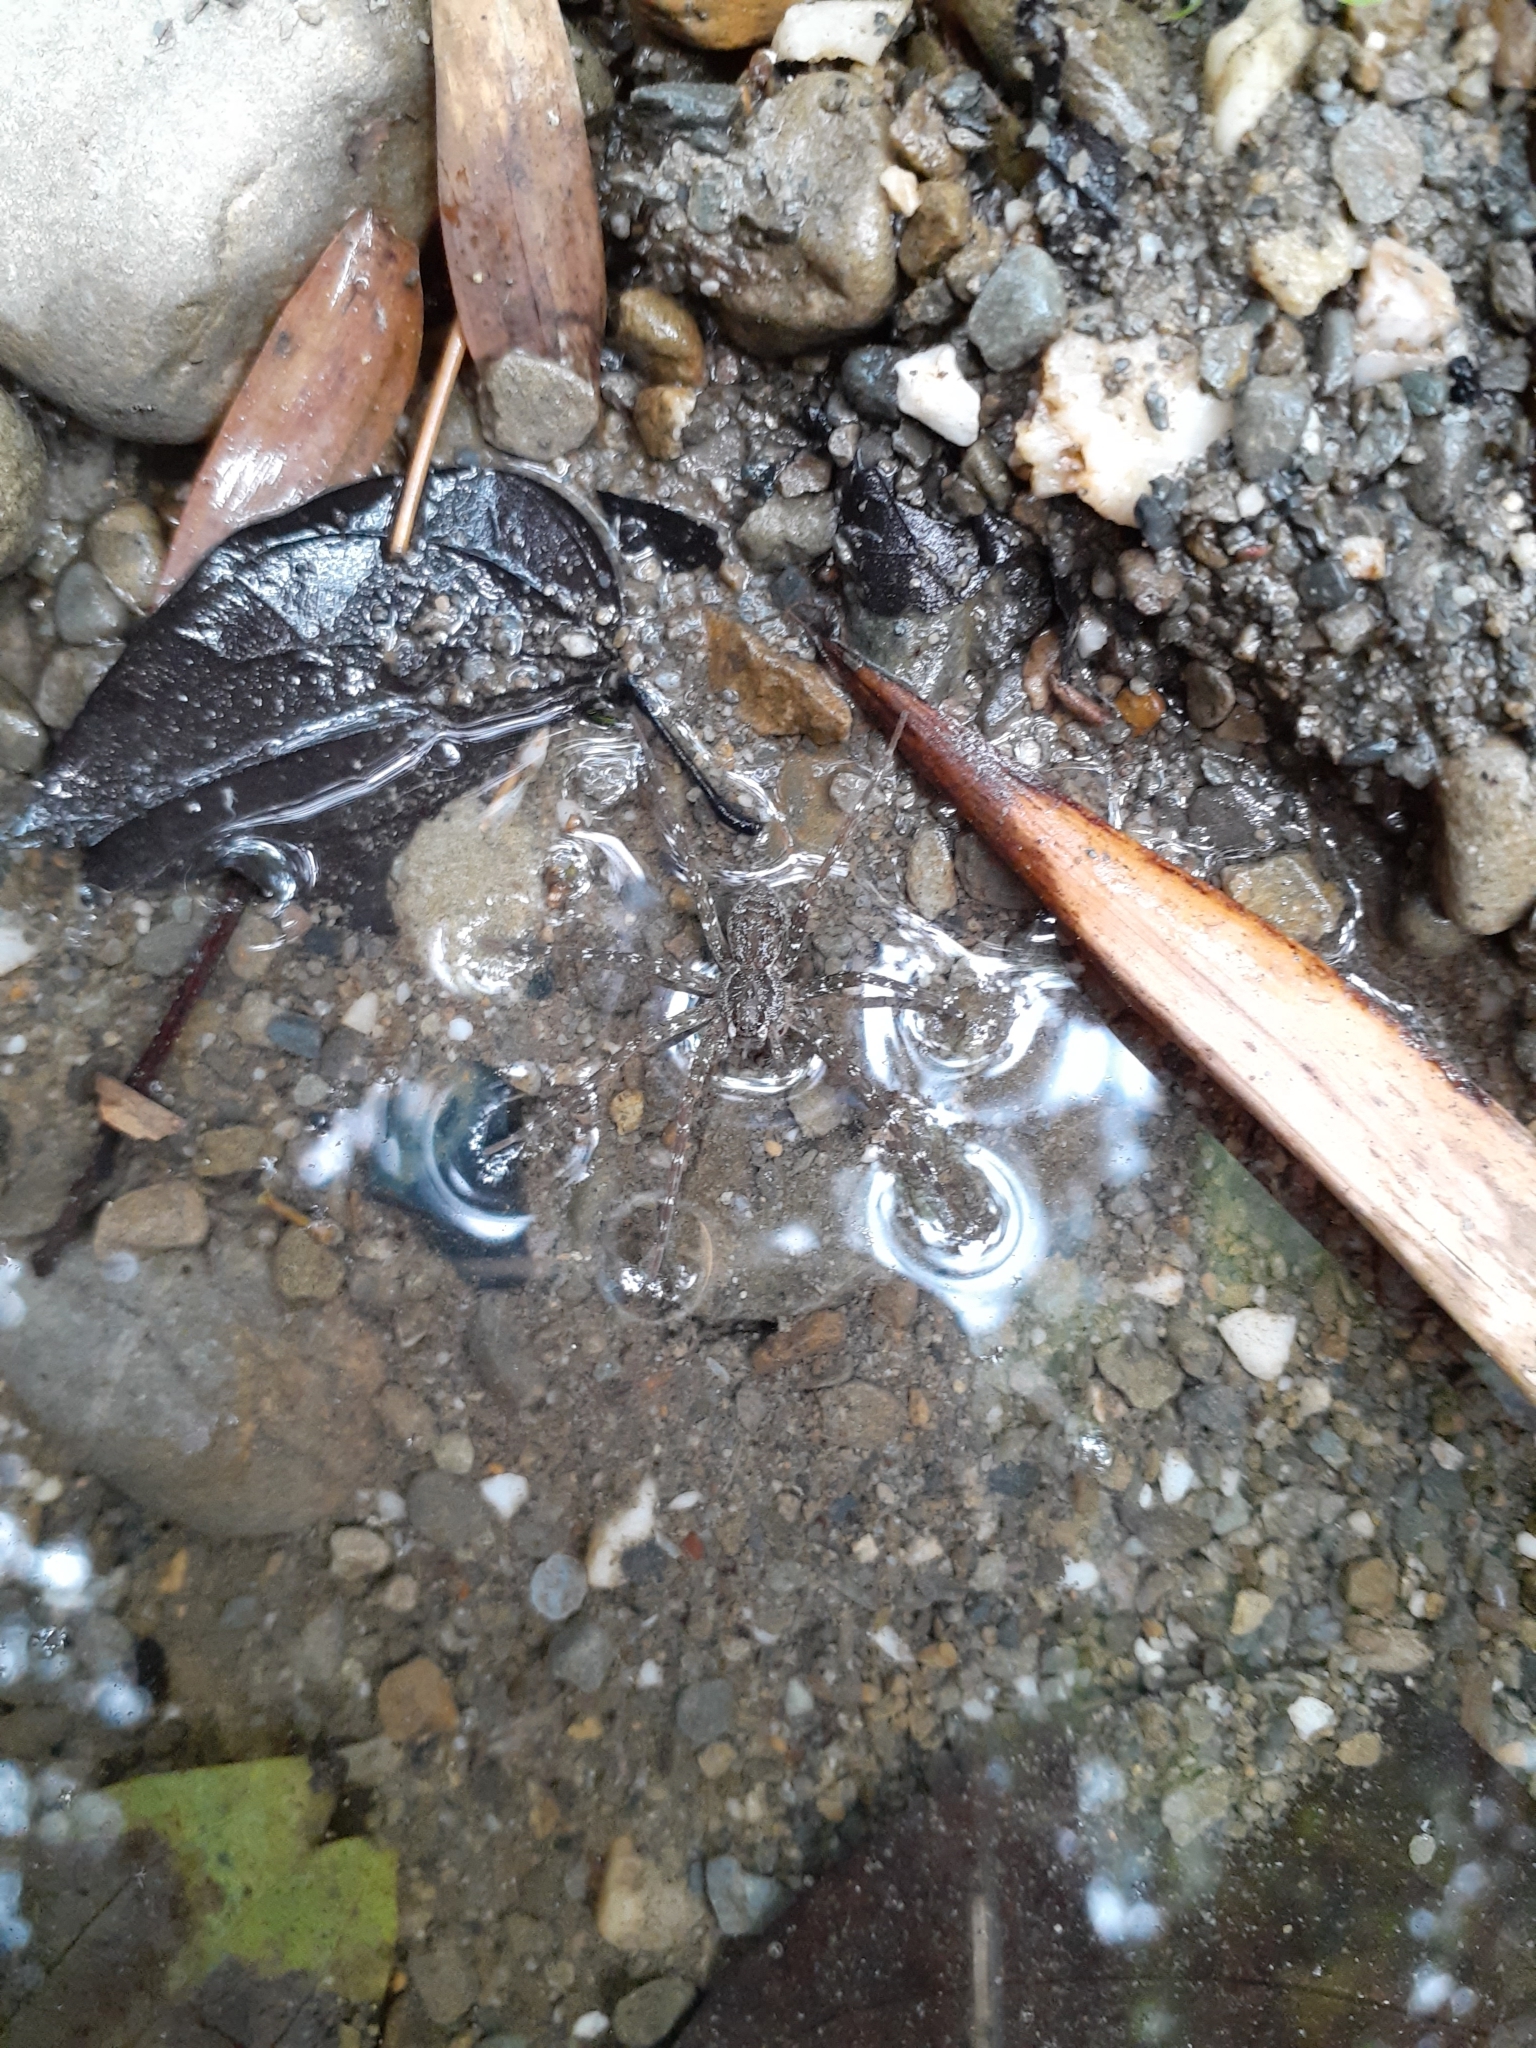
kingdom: Animalia
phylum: Arthropoda
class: Arachnida
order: Araneae
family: Pisauridae
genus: Dolomedes
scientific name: Dolomedes raptor
